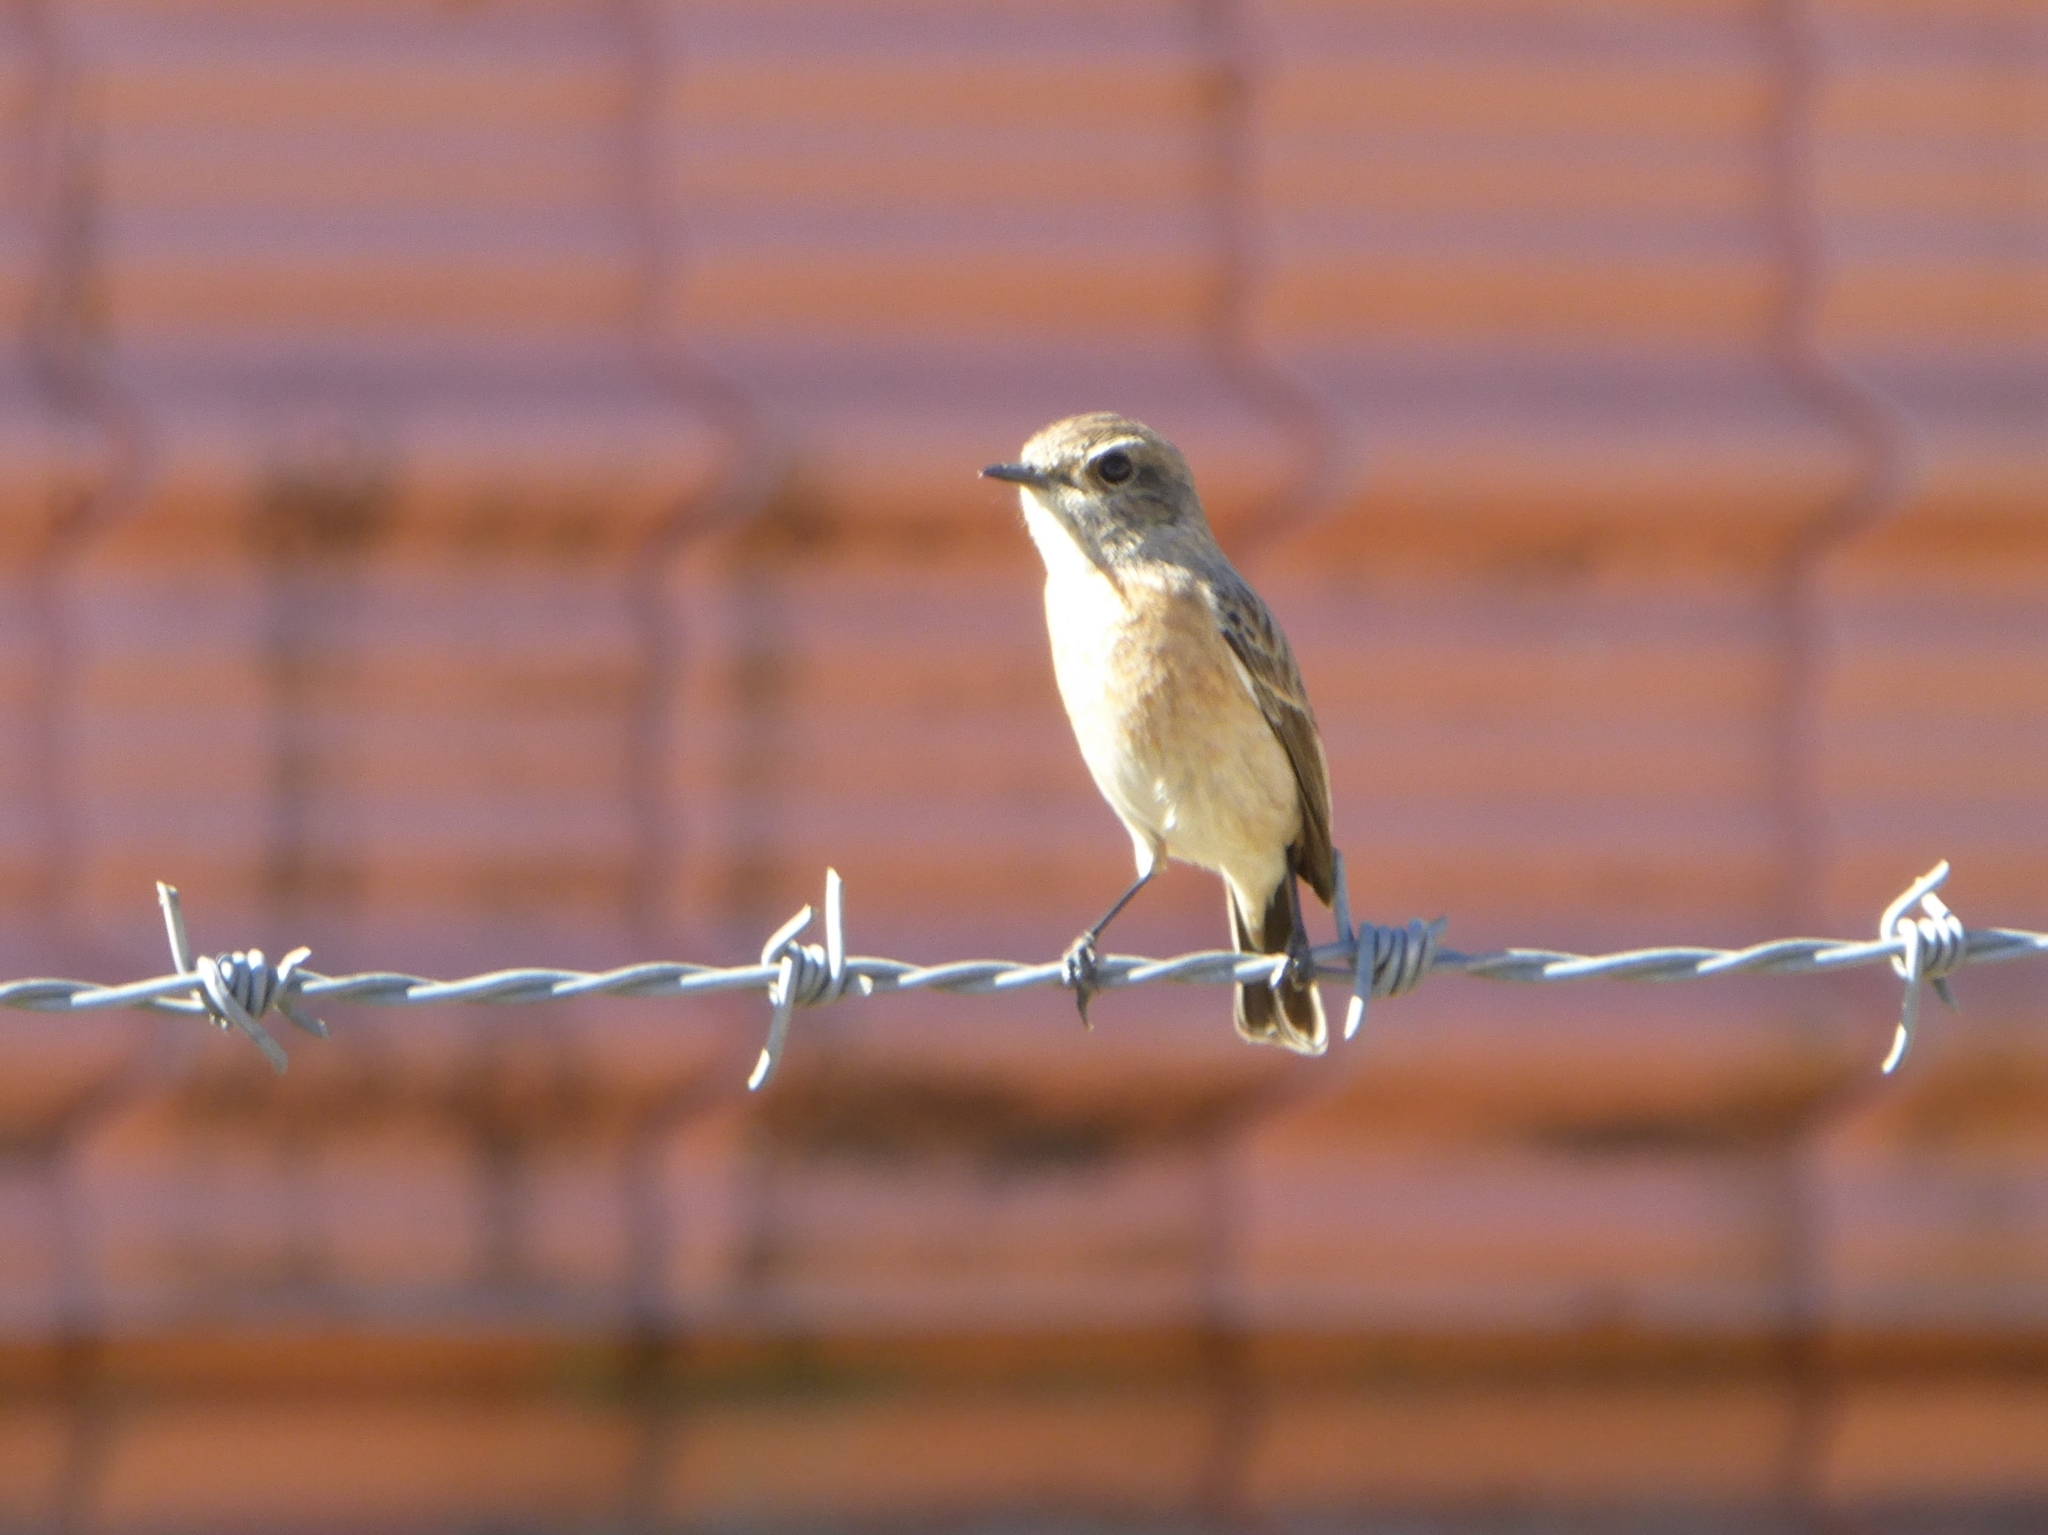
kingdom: Animalia
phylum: Chordata
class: Aves
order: Passeriformes
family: Muscicapidae
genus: Saxicola
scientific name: Saxicola maurus
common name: Siberian stonechat
